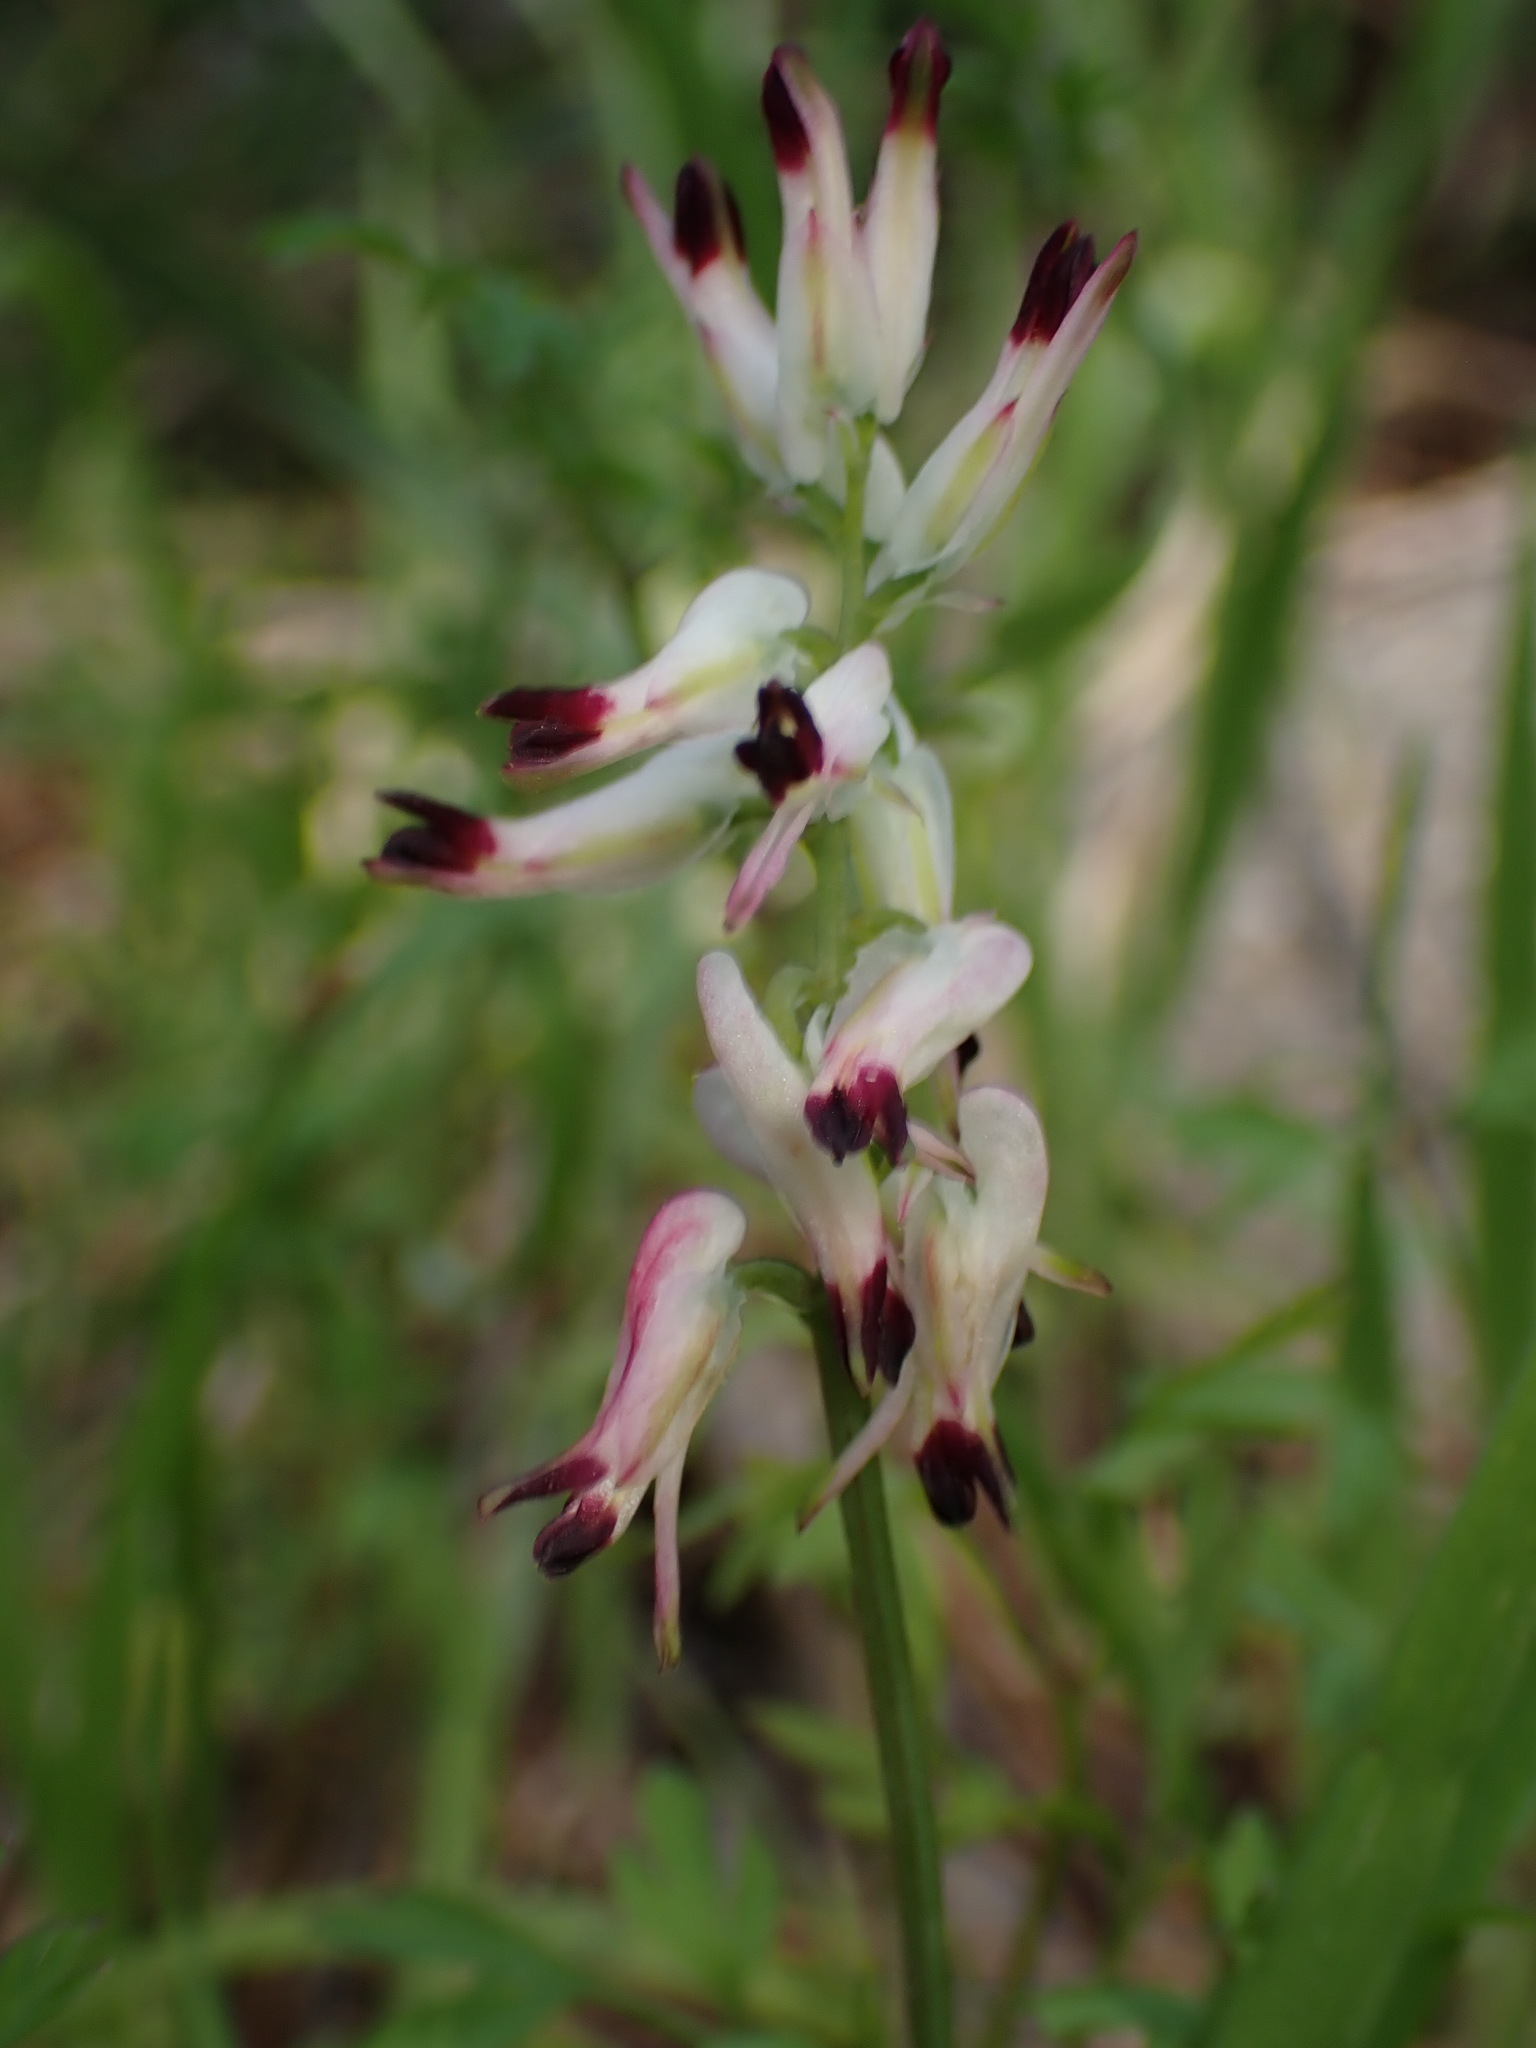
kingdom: Plantae
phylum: Tracheophyta
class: Magnoliopsida
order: Ranunculales
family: Papaveraceae
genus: Fumaria
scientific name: Fumaria capreolata
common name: White ramping-fumitory
